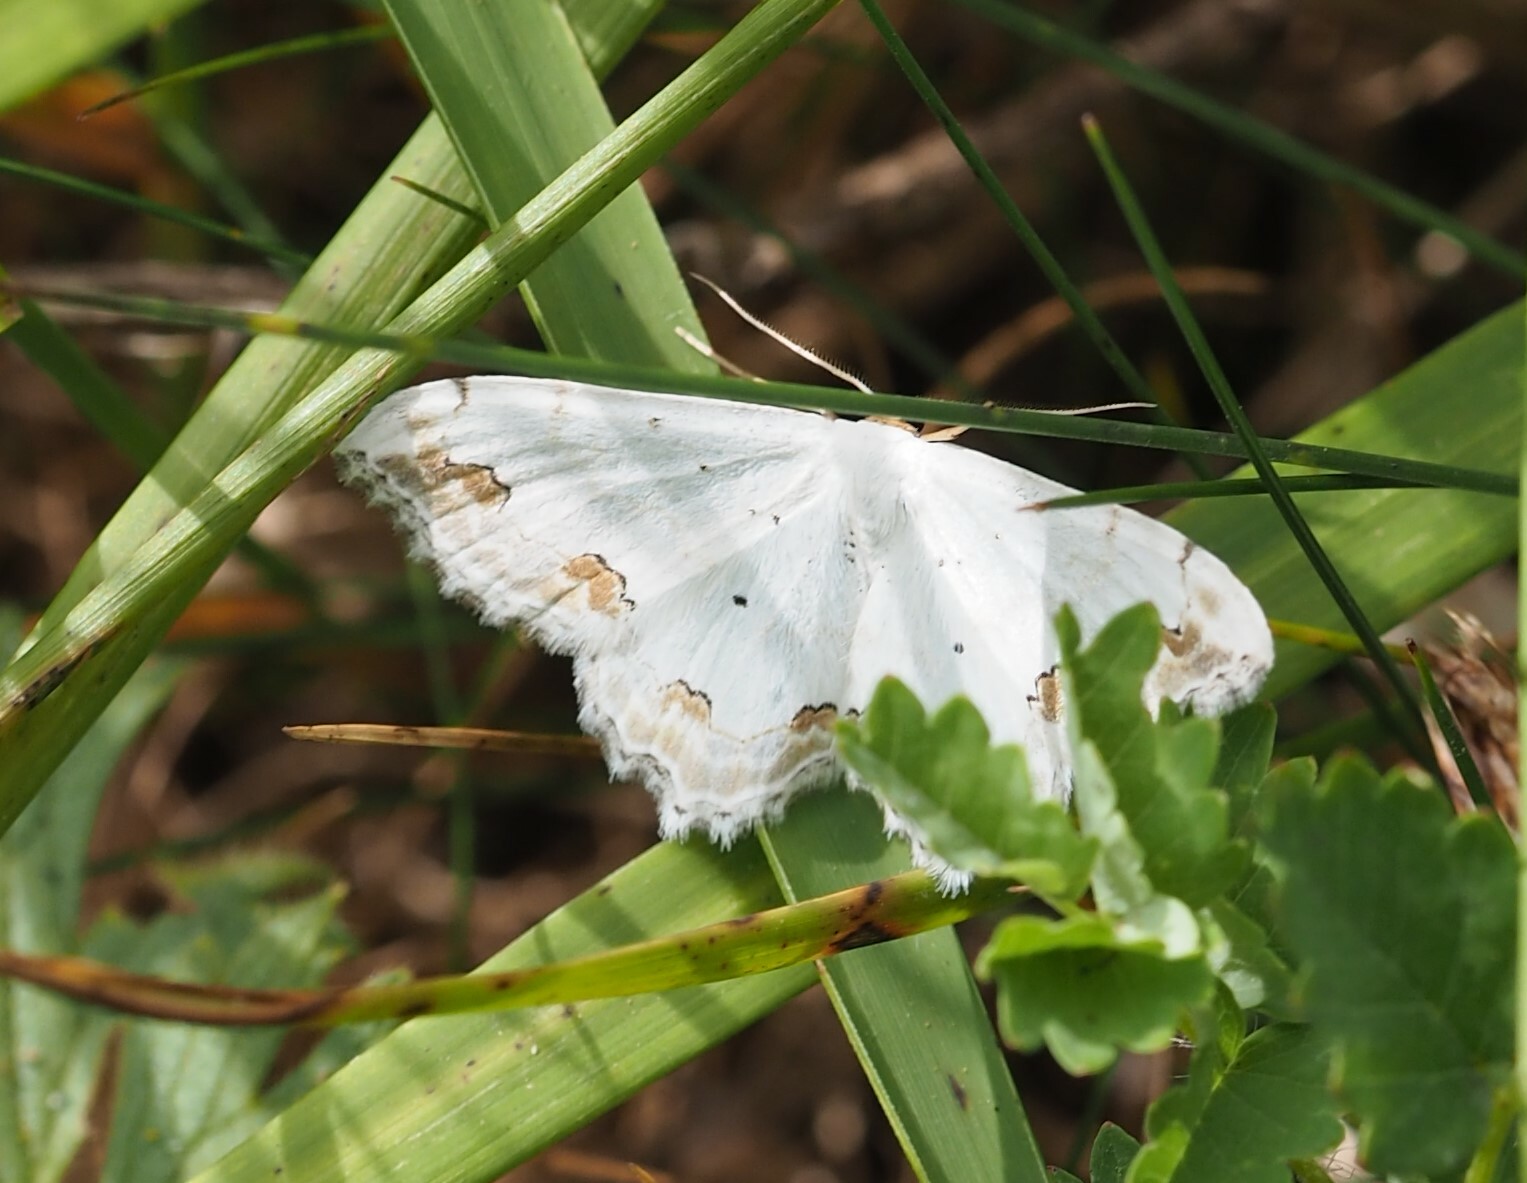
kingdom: Animalia
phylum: Arthropoda
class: Insecta
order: Lepidoptera
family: Geometridae
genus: Scopula
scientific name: Scopula ornata
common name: Lace border
